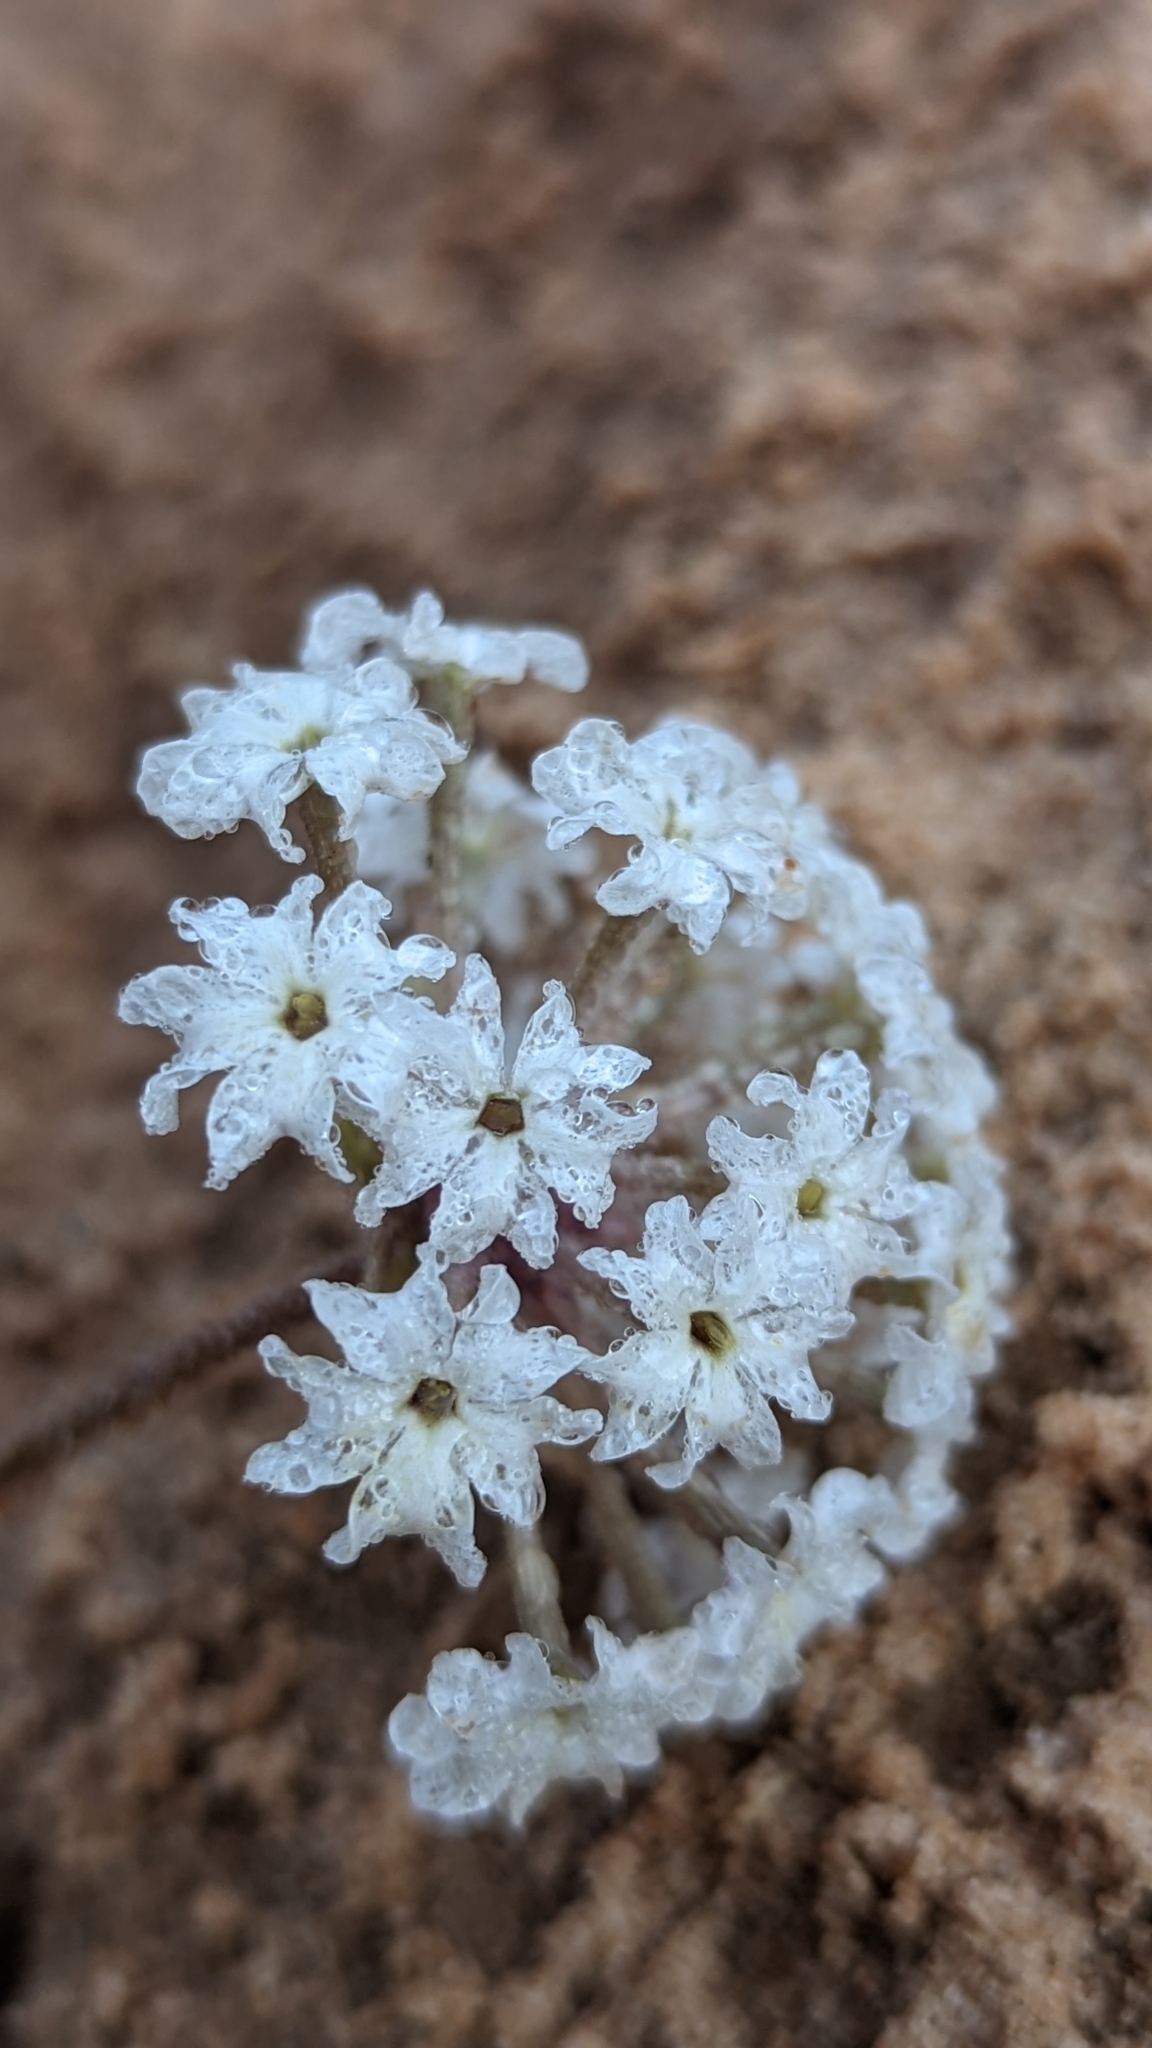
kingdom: Plantae
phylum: Tracheophyta
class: Magnoliopsida
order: Caryophyllales
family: Nyctaginaceae
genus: Abronia
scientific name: Abronia elliptica
